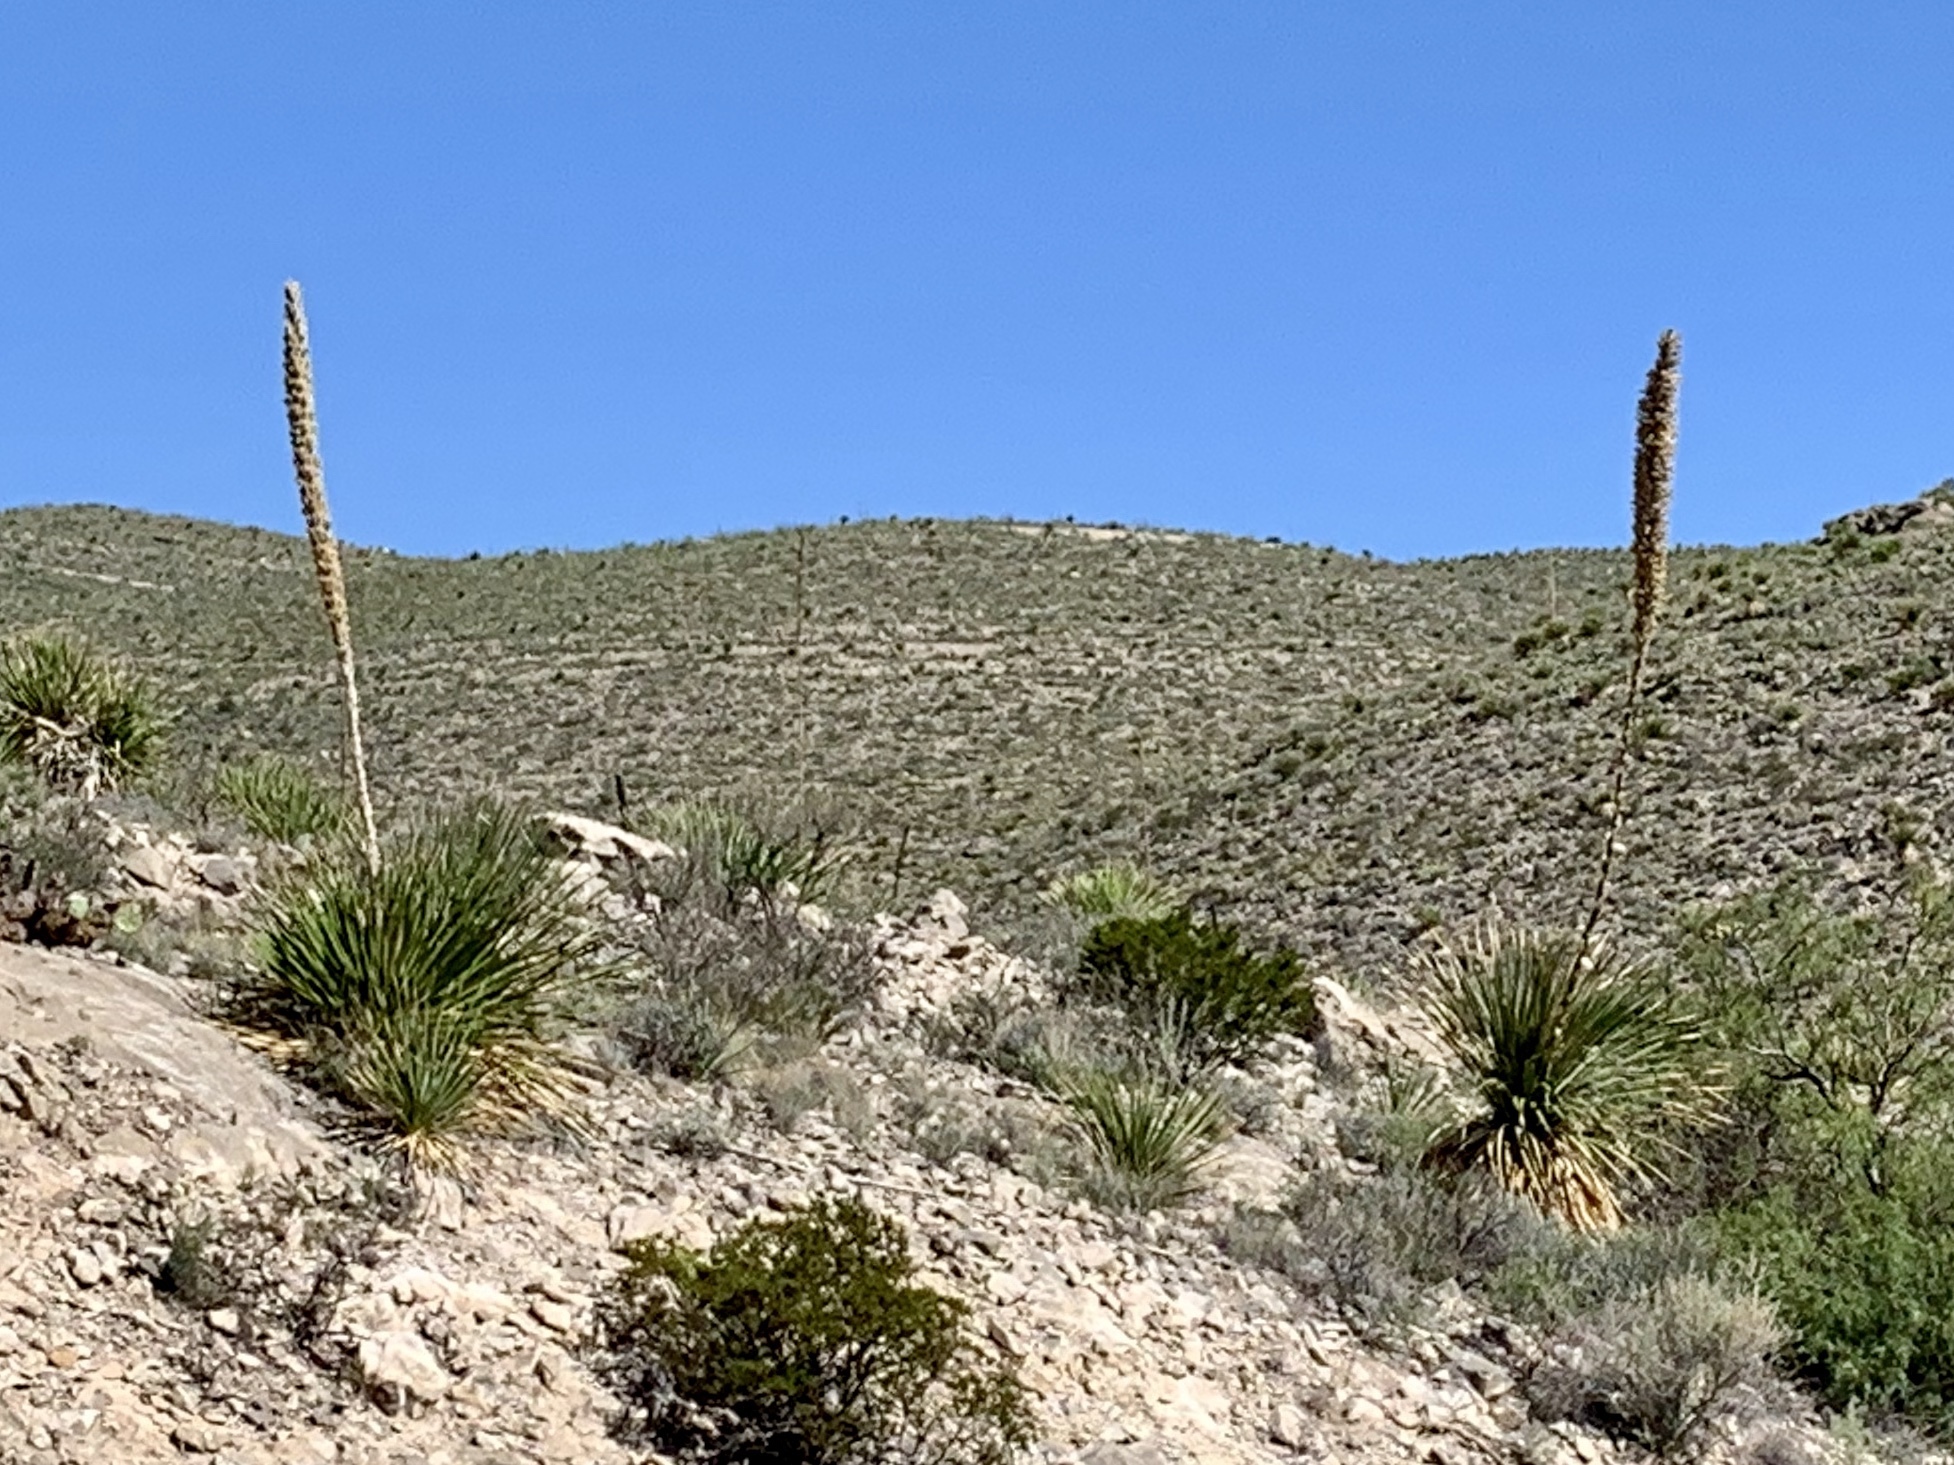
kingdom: Plantae
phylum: Tracheophyta
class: Liliopsida
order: Asparagales
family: Asparagaceae
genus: Dasylirion
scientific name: Dasylirion leiophyllum
